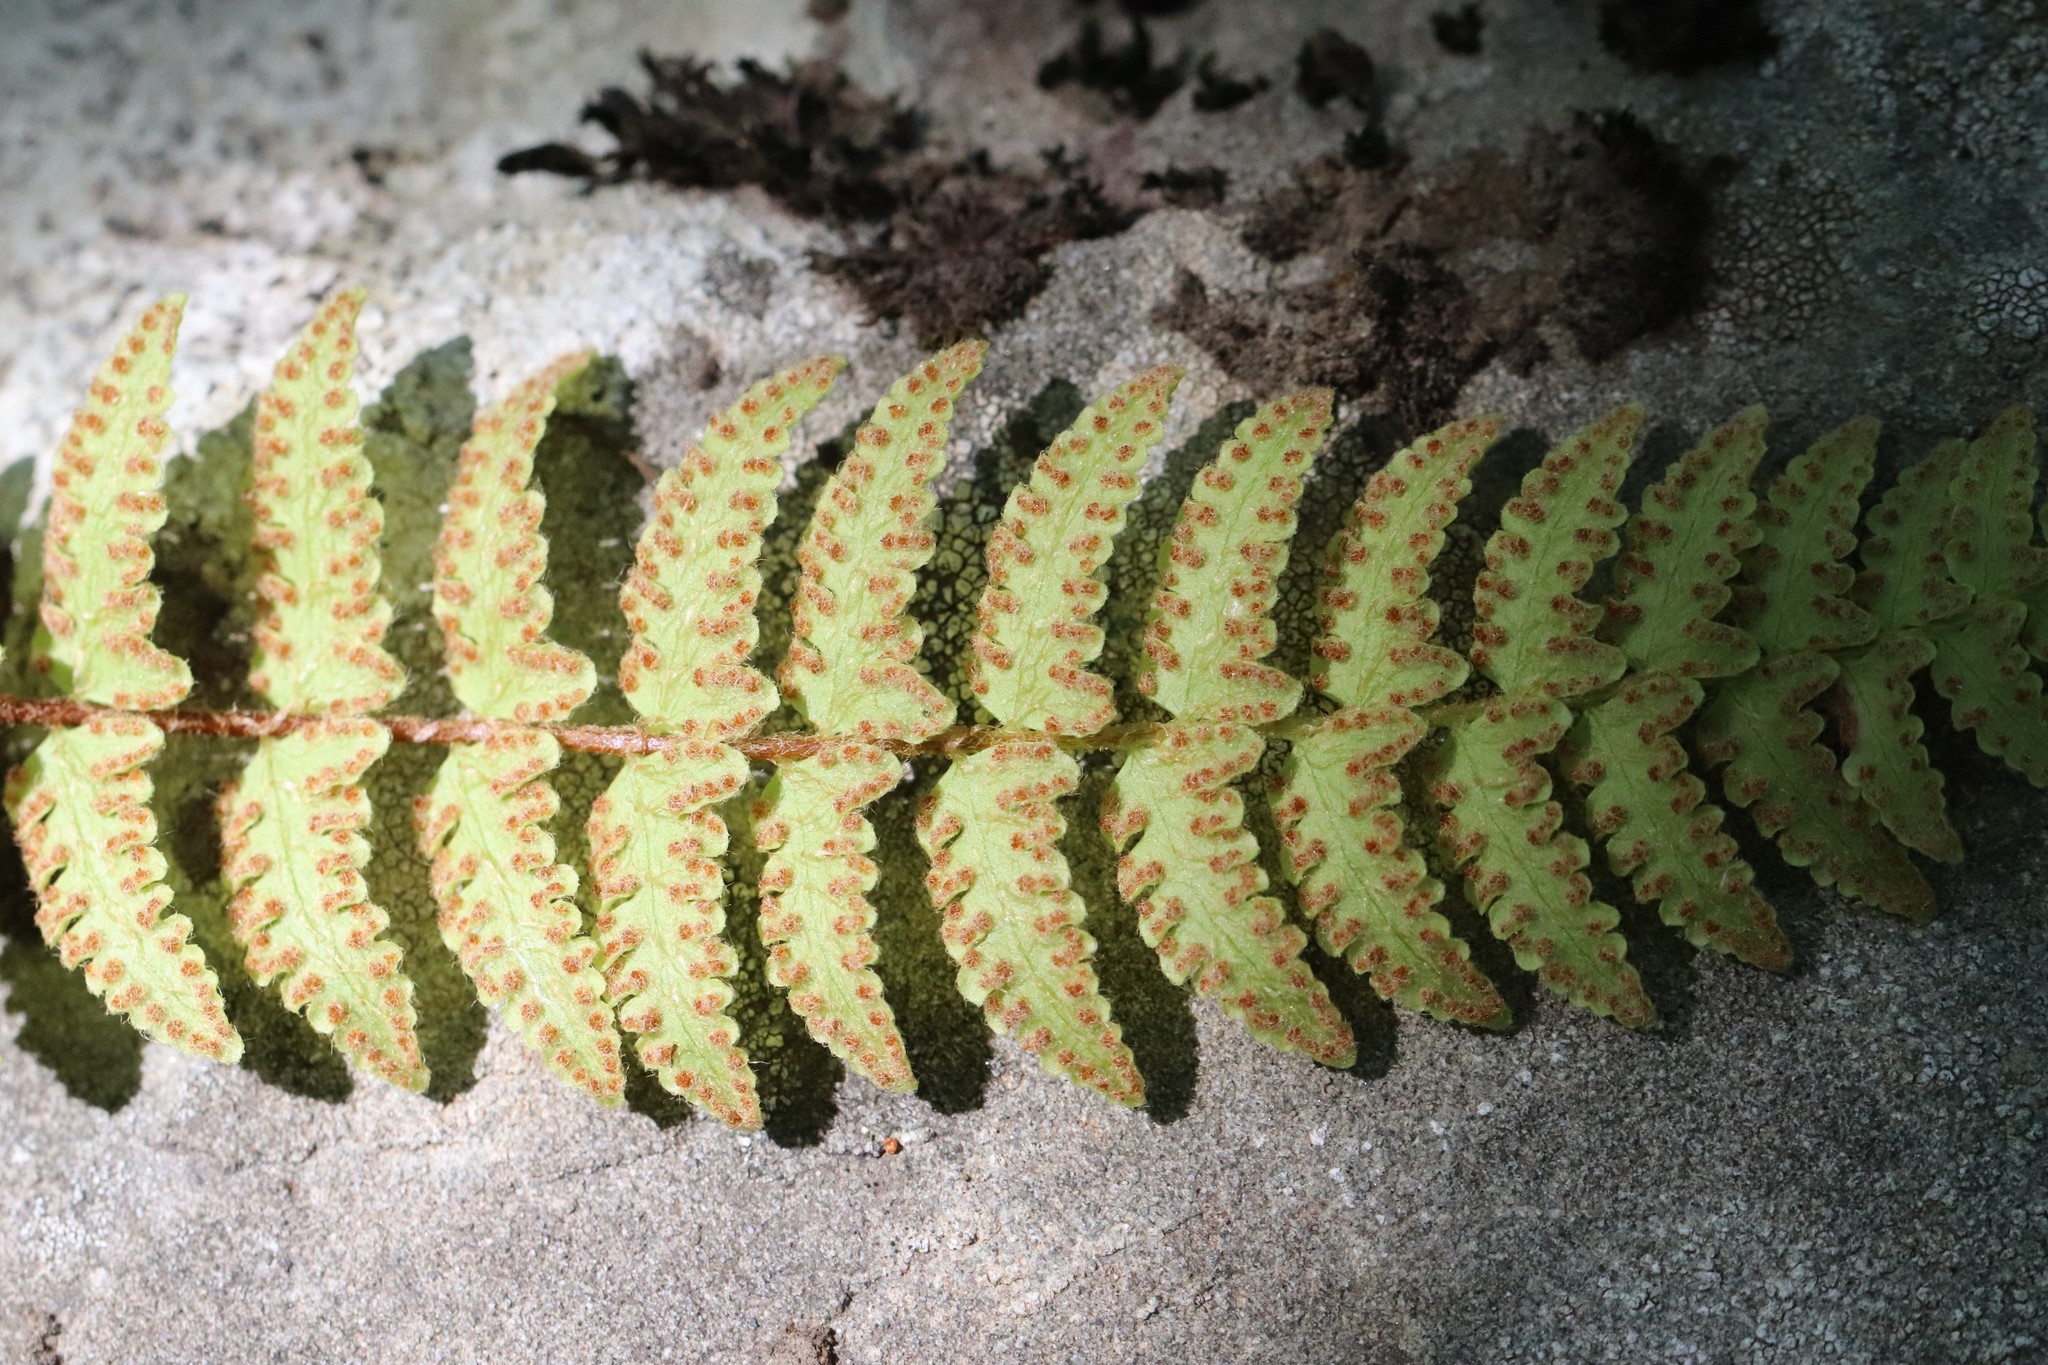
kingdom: Plantae
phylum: Tracheophyta
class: Polypodiopsida
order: Polypodiales
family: Woodsiaceae
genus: Woodsia
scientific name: Woodsia subcordata
